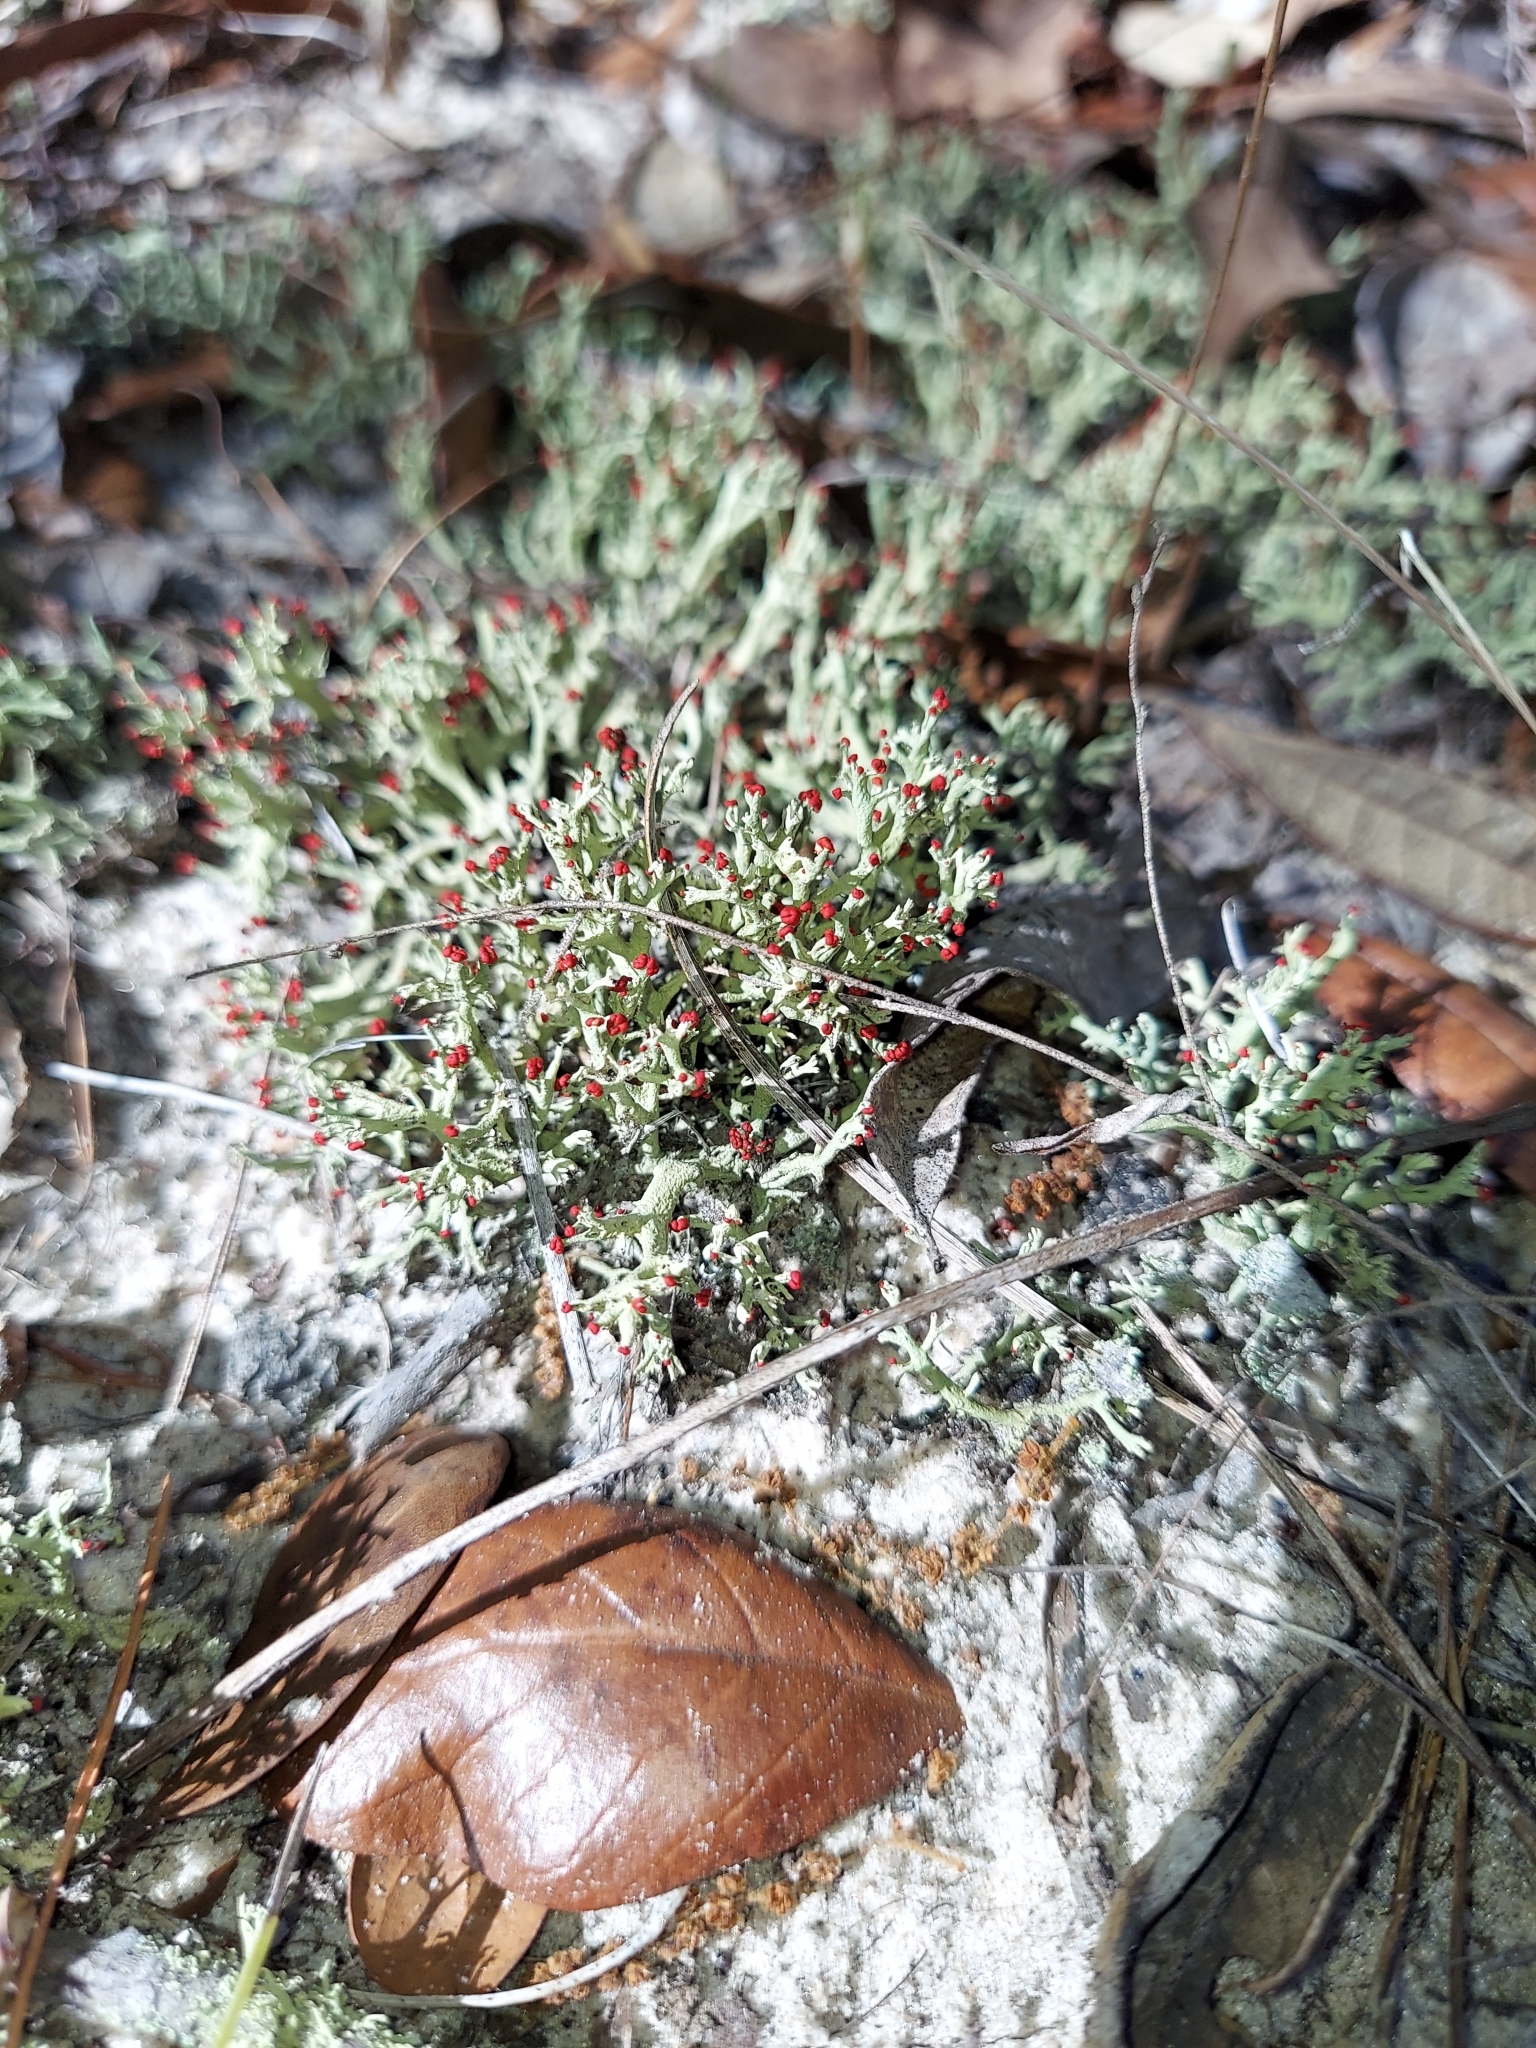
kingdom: Fungi
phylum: Ascomycota
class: Lecanoromycetes
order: Lecanorales
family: Cladoniaceae
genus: Cladonia
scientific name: Cladonia leporina
